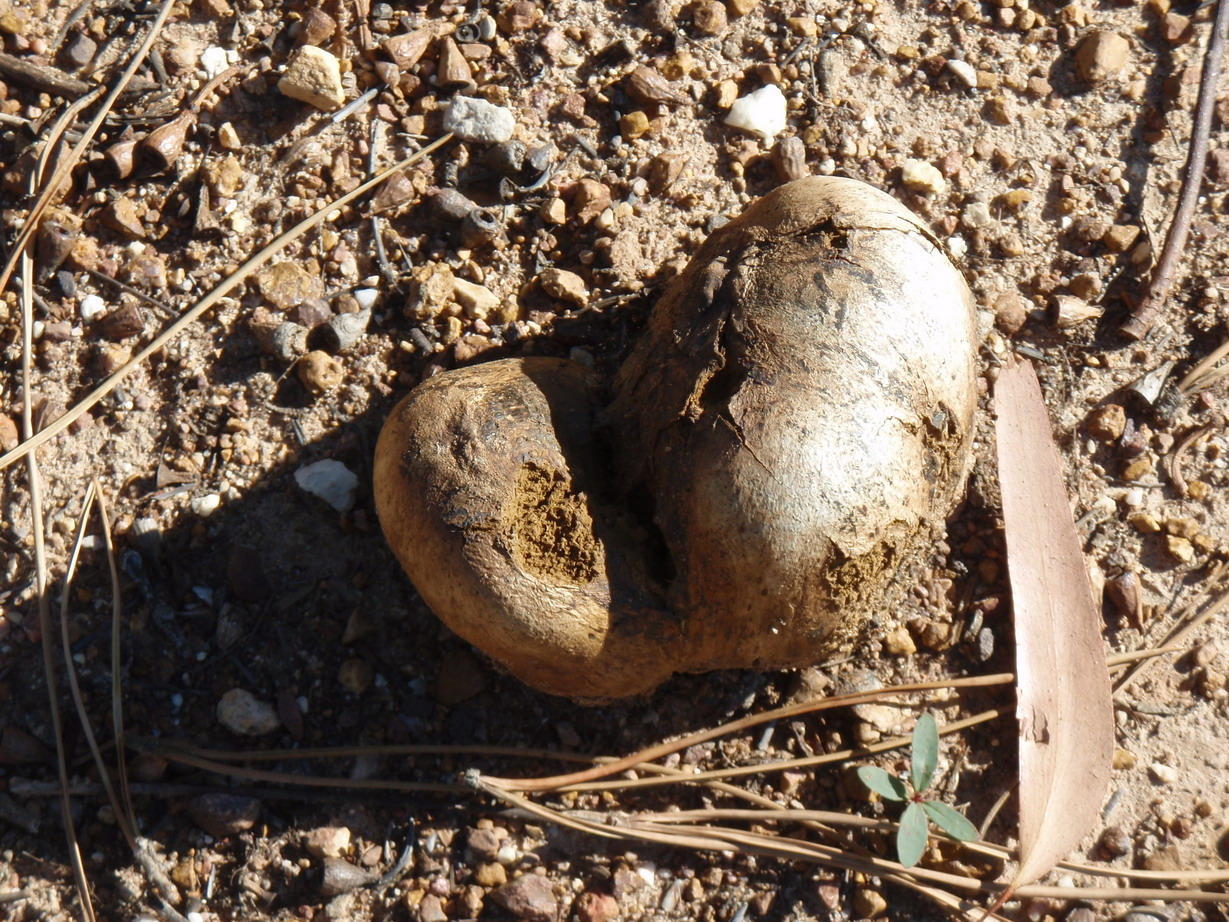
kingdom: Fungi
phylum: Basidiomycota
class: Agaricomycetes
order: Boletales
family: Sclerodermataceae
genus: Pisolithus
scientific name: Pisolithus tinctorius
